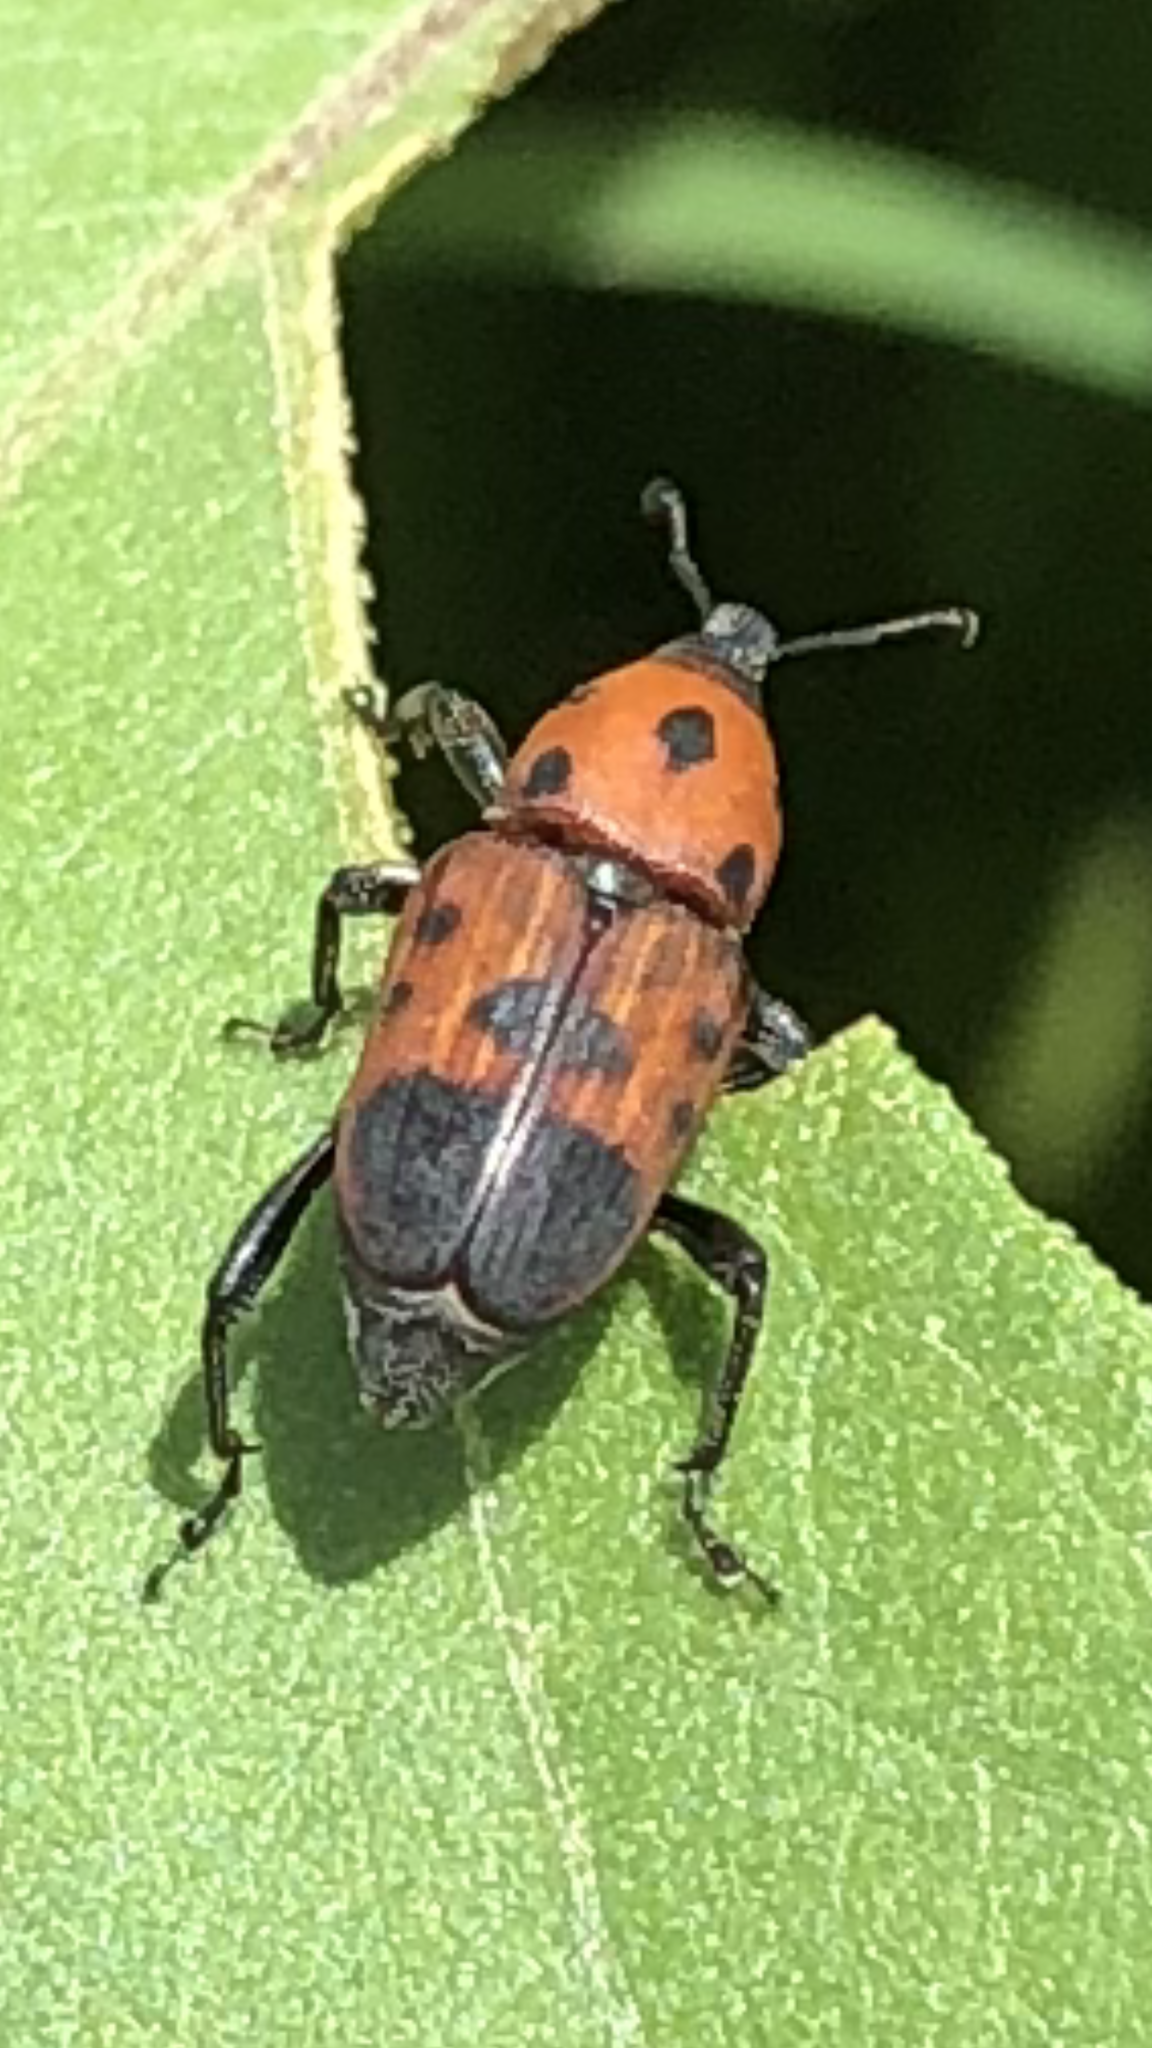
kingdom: Animalia
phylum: Arthropoda
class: Insecta
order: Coleoptera
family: Dryophthoridae
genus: Rhodobaenus
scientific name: Rhodobaenus quinquepunctatus
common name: Cocklebur weevil
